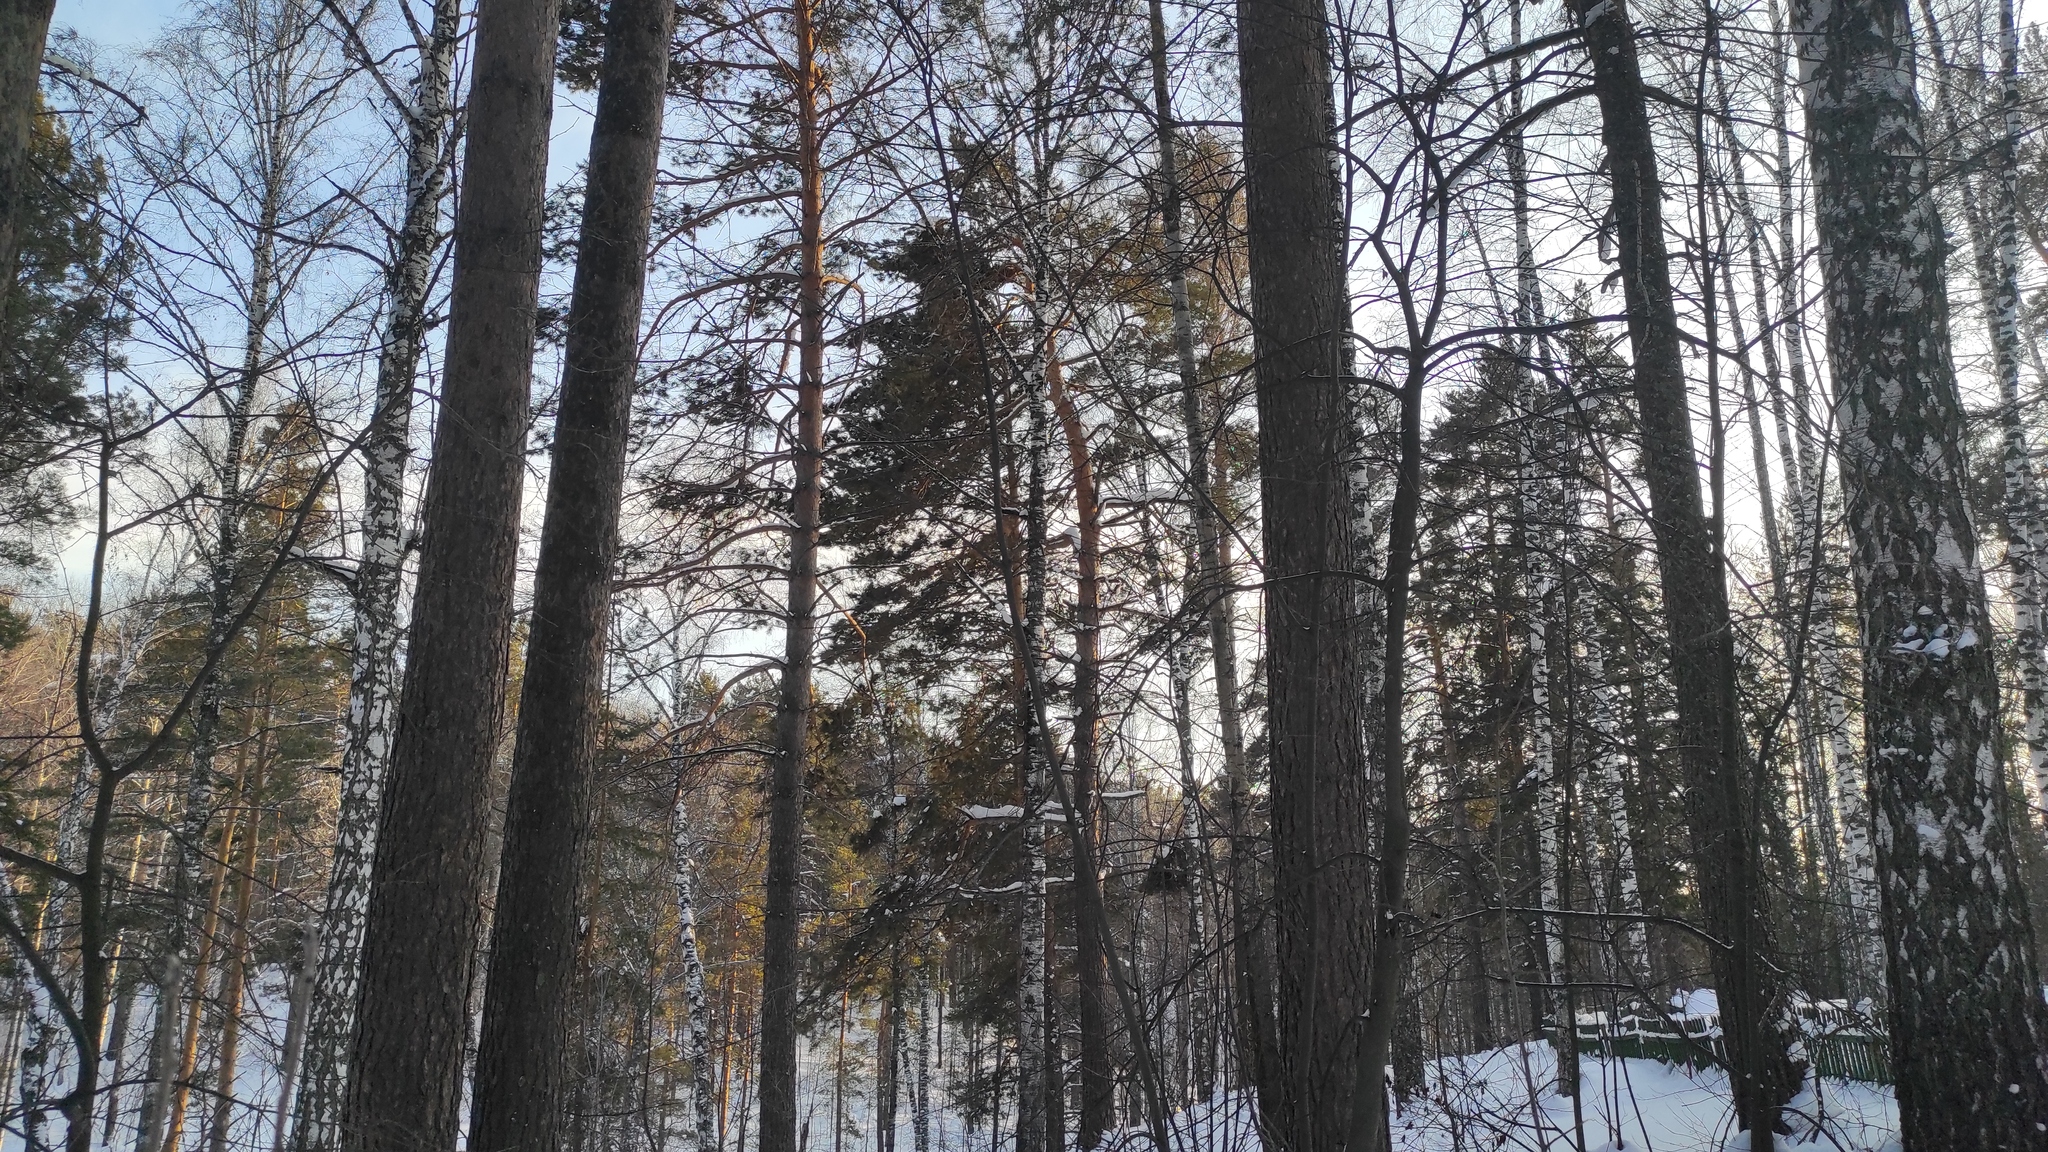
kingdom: Plantae
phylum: Tracheophyta
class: Pinopsida
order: Pinales
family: Pinaceae
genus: Pinus
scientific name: Pinus sylvestris
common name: Scots pine
